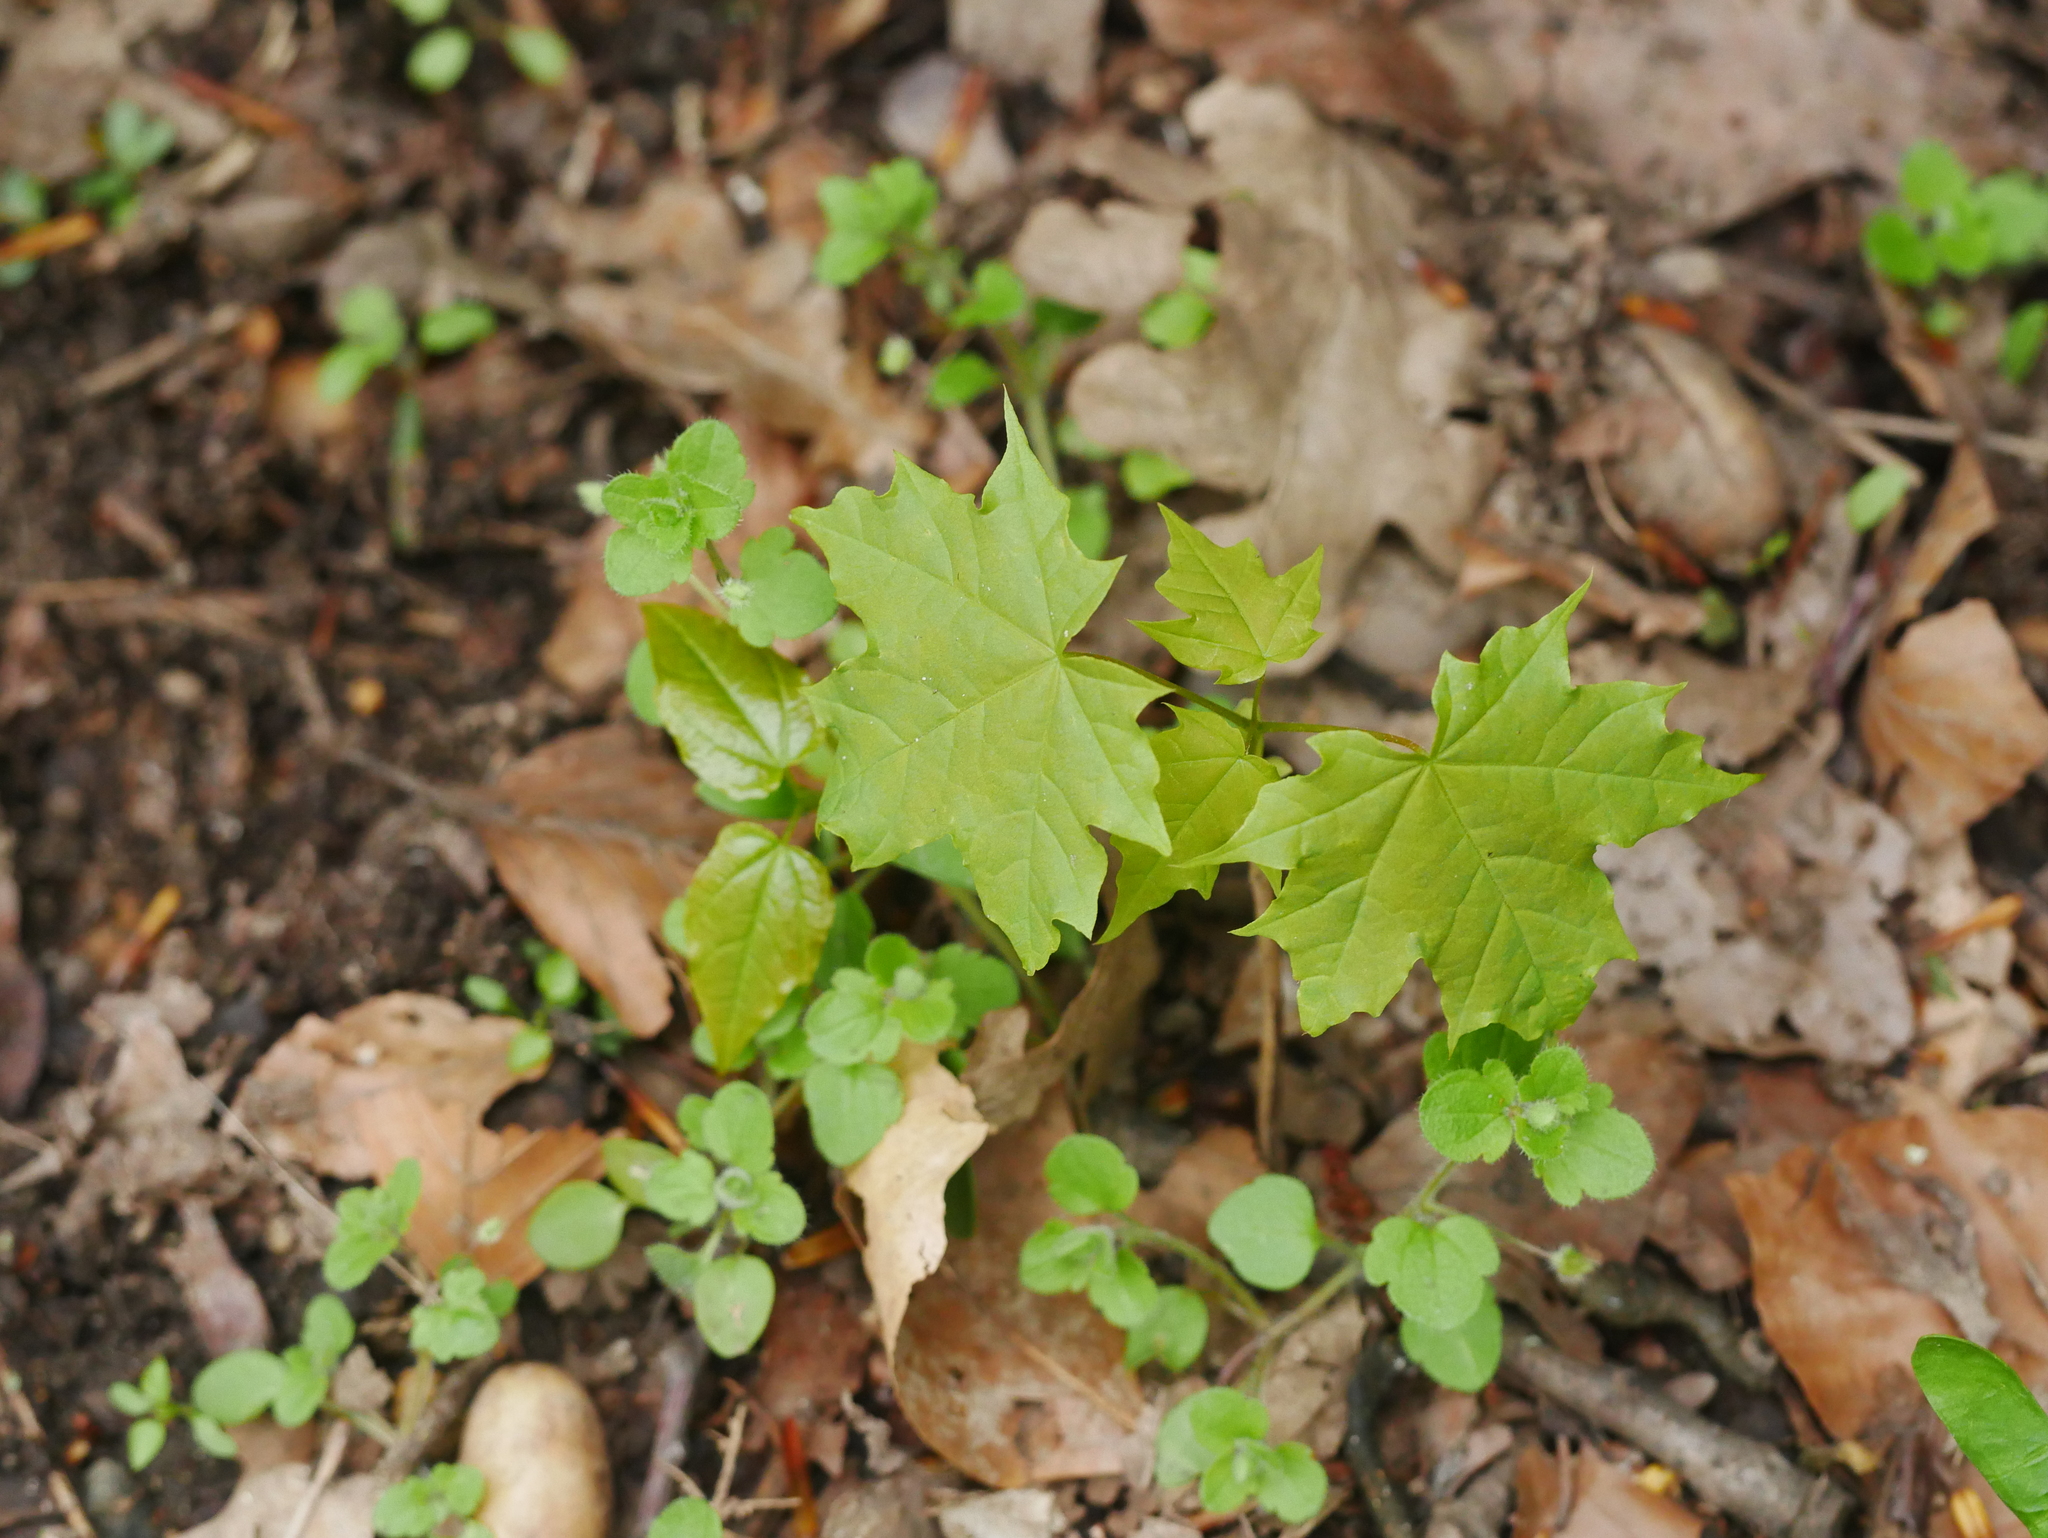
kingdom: Plantae
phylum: Tracheophyta
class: Magnoliopsida
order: Sapindales
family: Sapindaceae
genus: Acer
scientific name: Acer platanoides
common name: Norway maple
